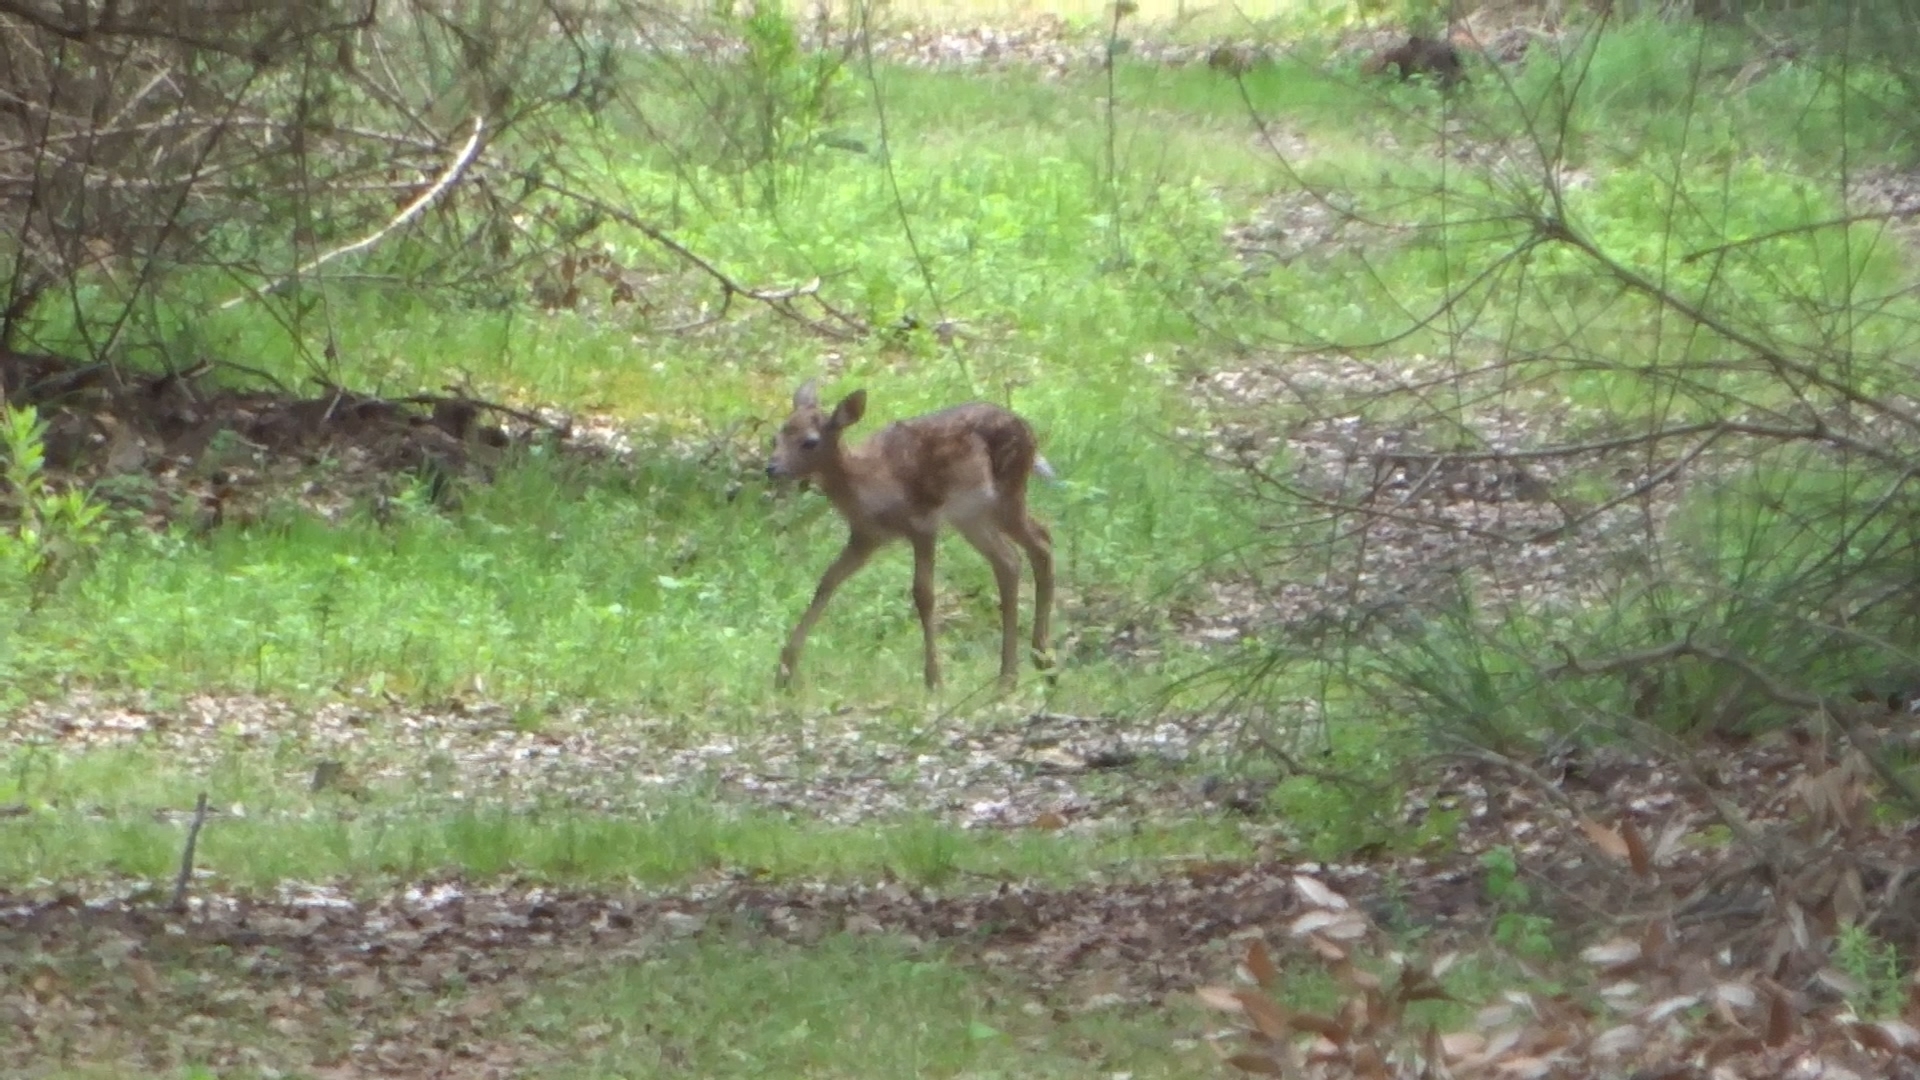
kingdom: Animalia
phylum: Chordata
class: Mammalia
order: Artiodactyla
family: Cervidae
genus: Dama
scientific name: Dama dama
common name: Fallow deer
